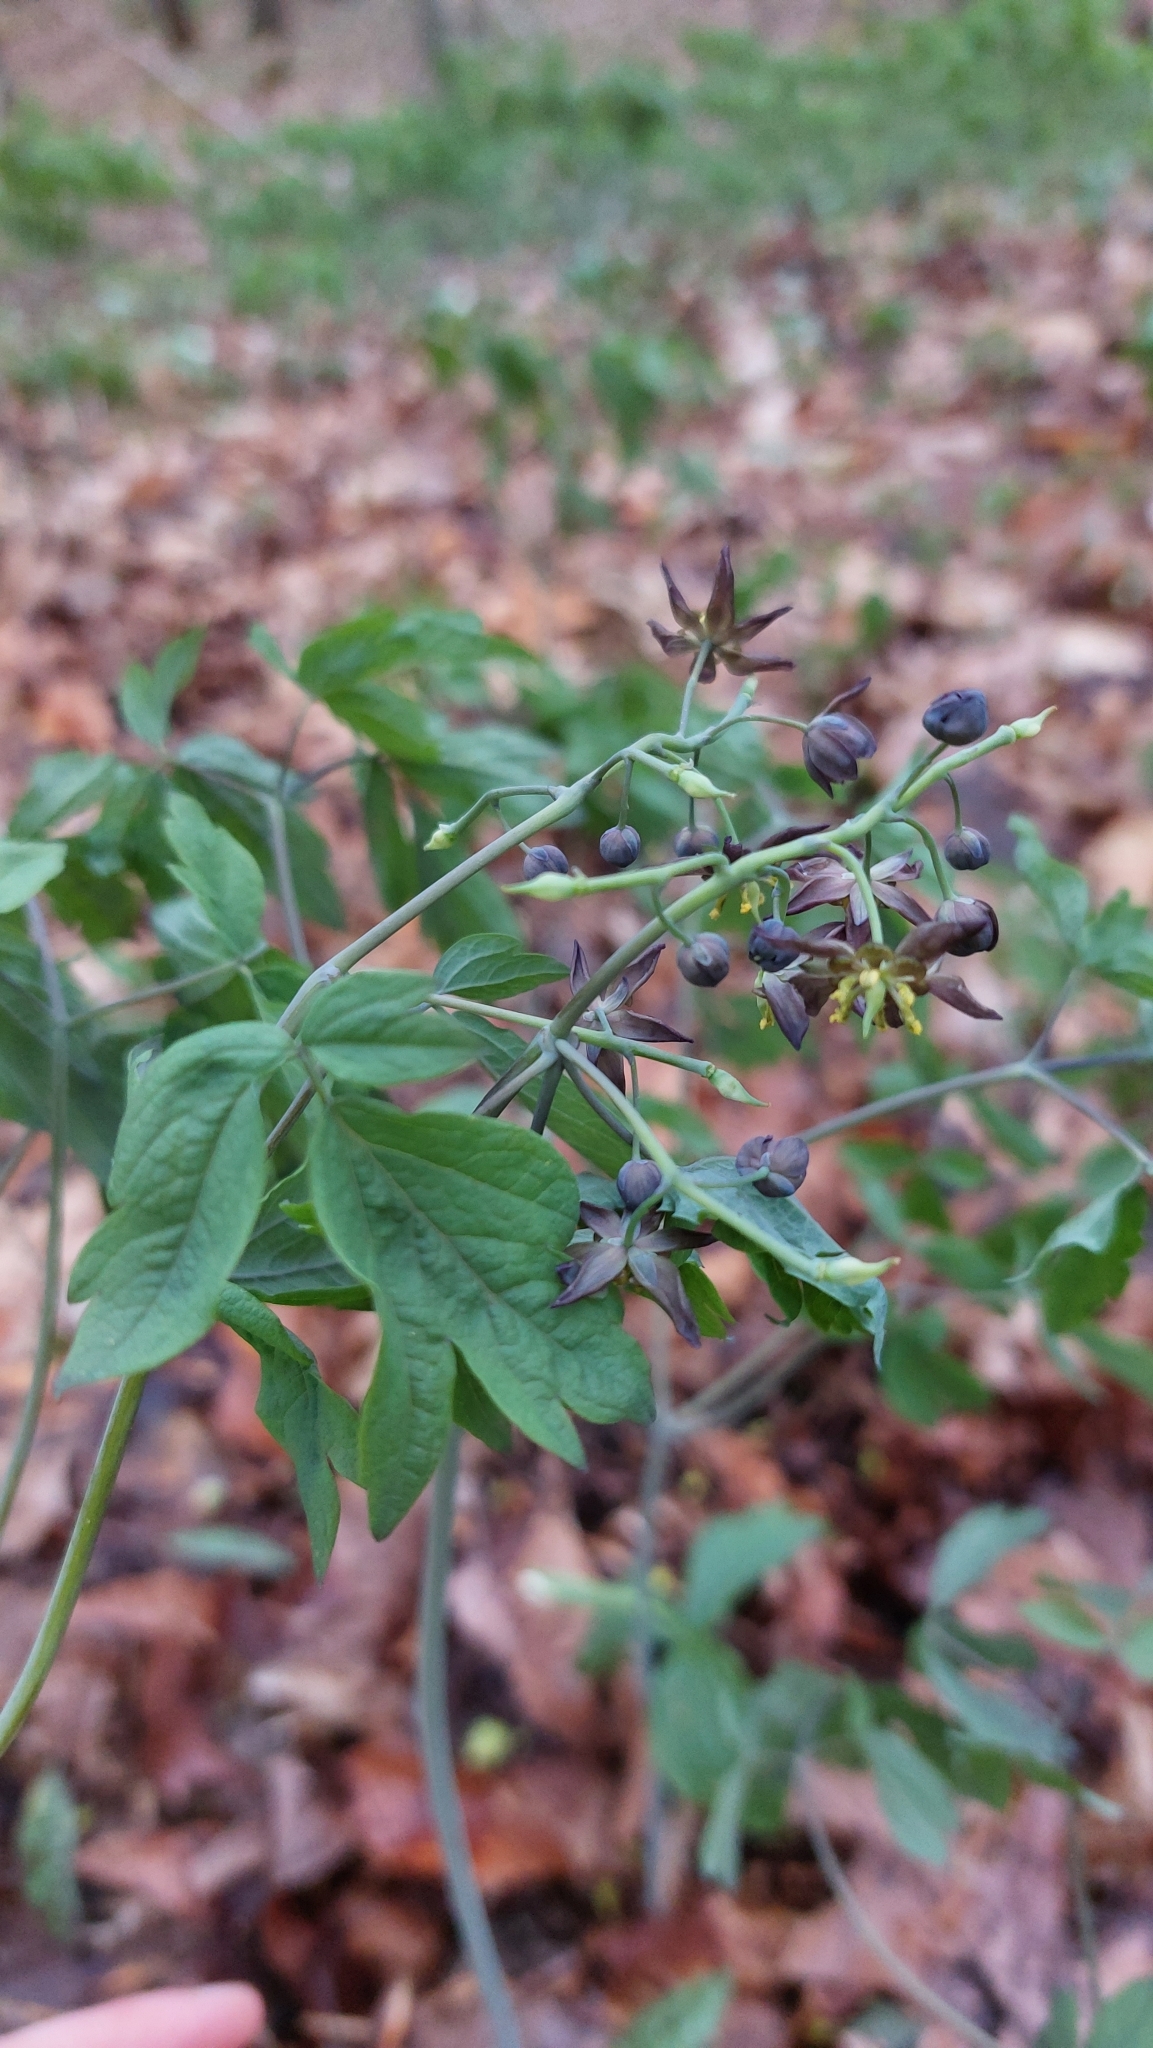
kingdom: Plantae
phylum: Tracheophyta
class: Magnoliopsida
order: Ranunculales
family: Berberidaceae
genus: Caulophyllum
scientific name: Caulophyllum giganteum
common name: Blue cohosh
